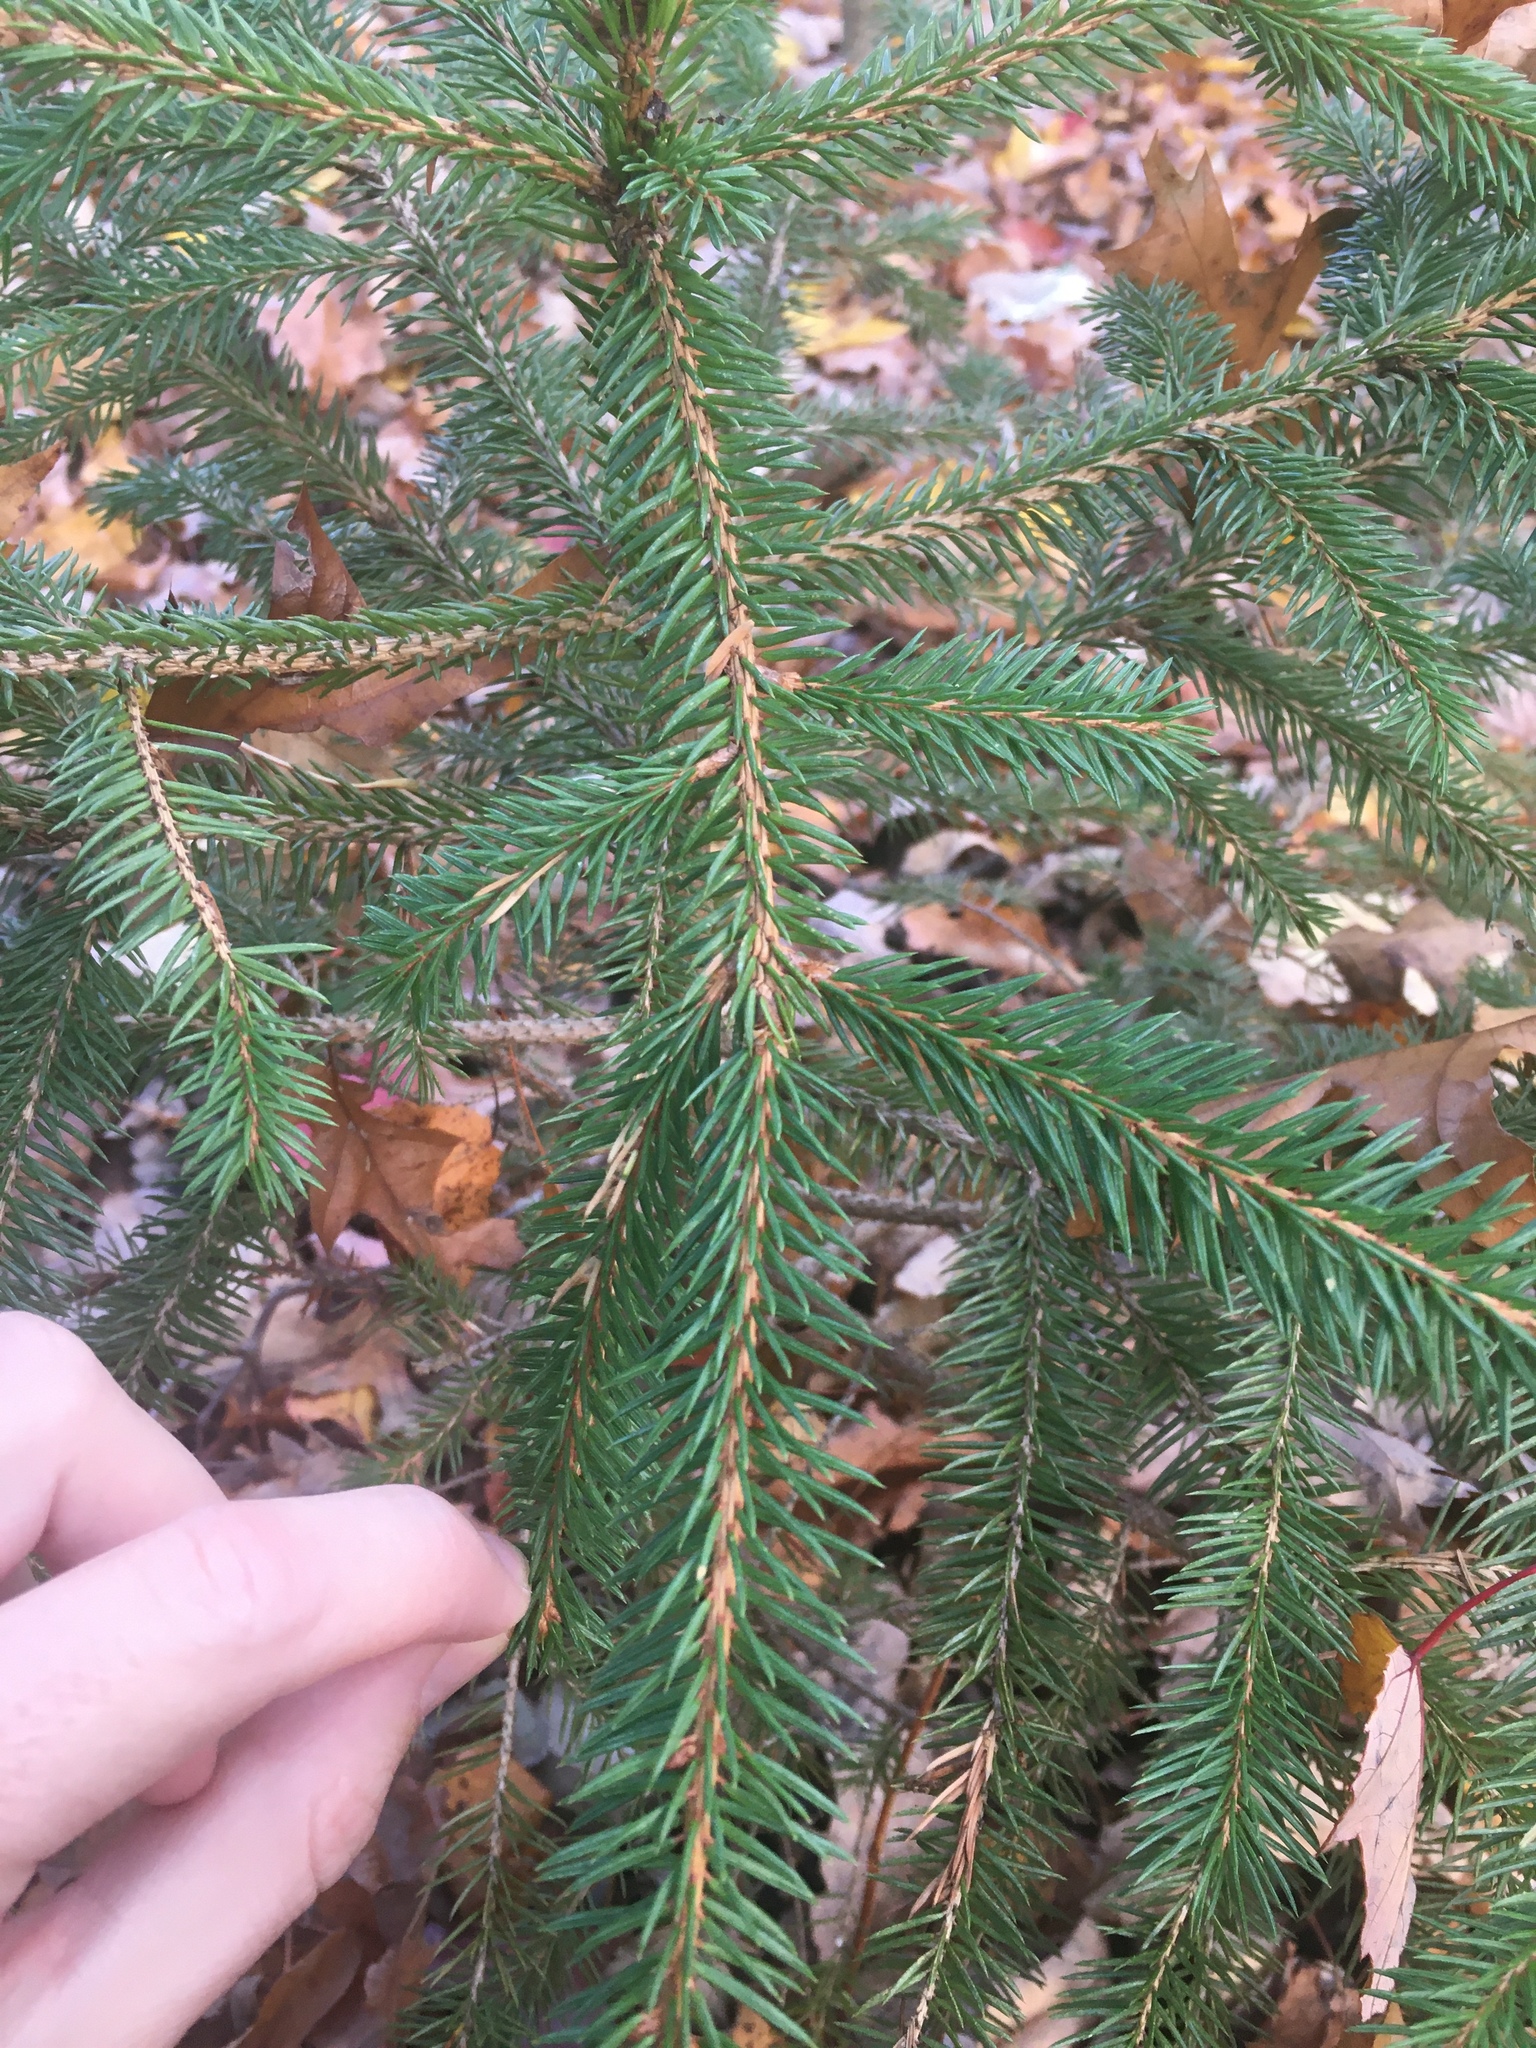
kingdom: Plantae
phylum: Tracheophyta
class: Pinopsida
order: Pinales
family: Pinaceae
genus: Picea
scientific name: Picea rubens
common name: Red spruce
